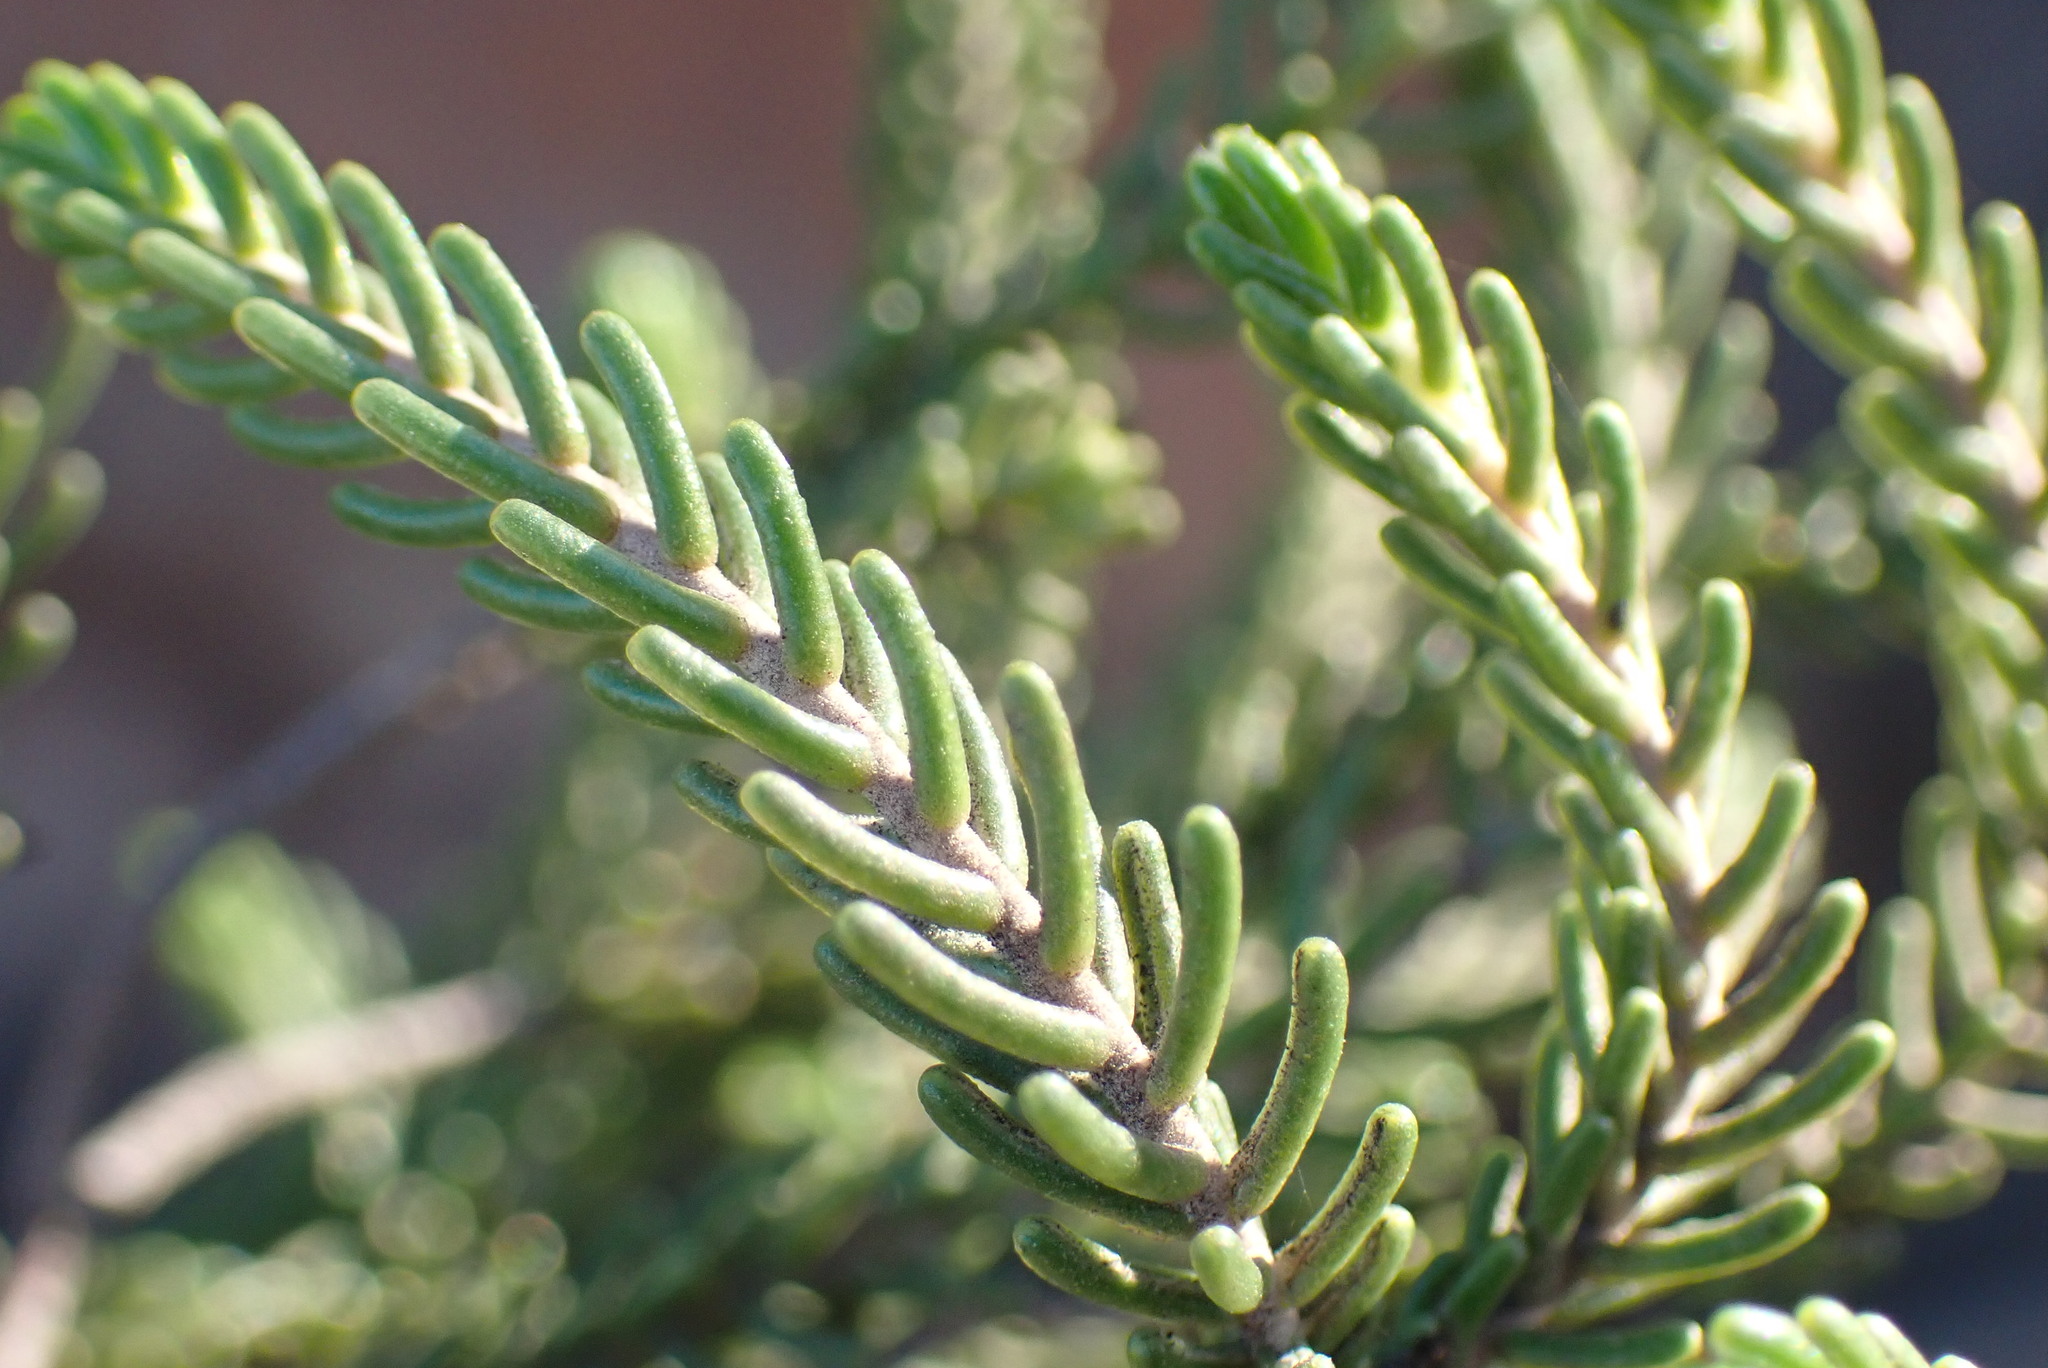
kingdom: Plantae
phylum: Tracheophyta
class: Magnoliopsida
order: Malvales
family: Thymelaeaceae
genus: Passerina
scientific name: Passerina obtusifolia
